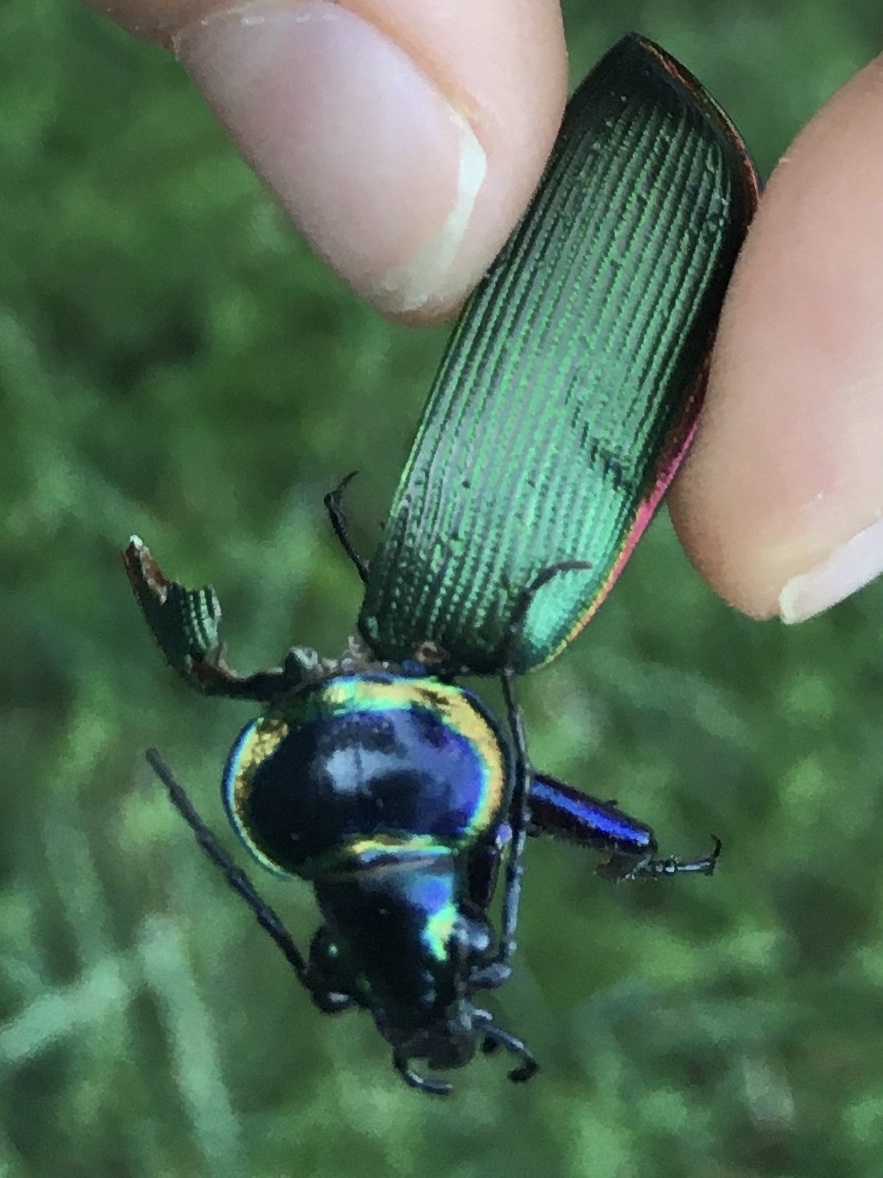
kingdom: Animalia
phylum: Arthropoda
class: Insecta
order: Coleoptera
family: Carabidae
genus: Calosoma
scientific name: Calosoma scrutator
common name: Fiery searcher beetle
